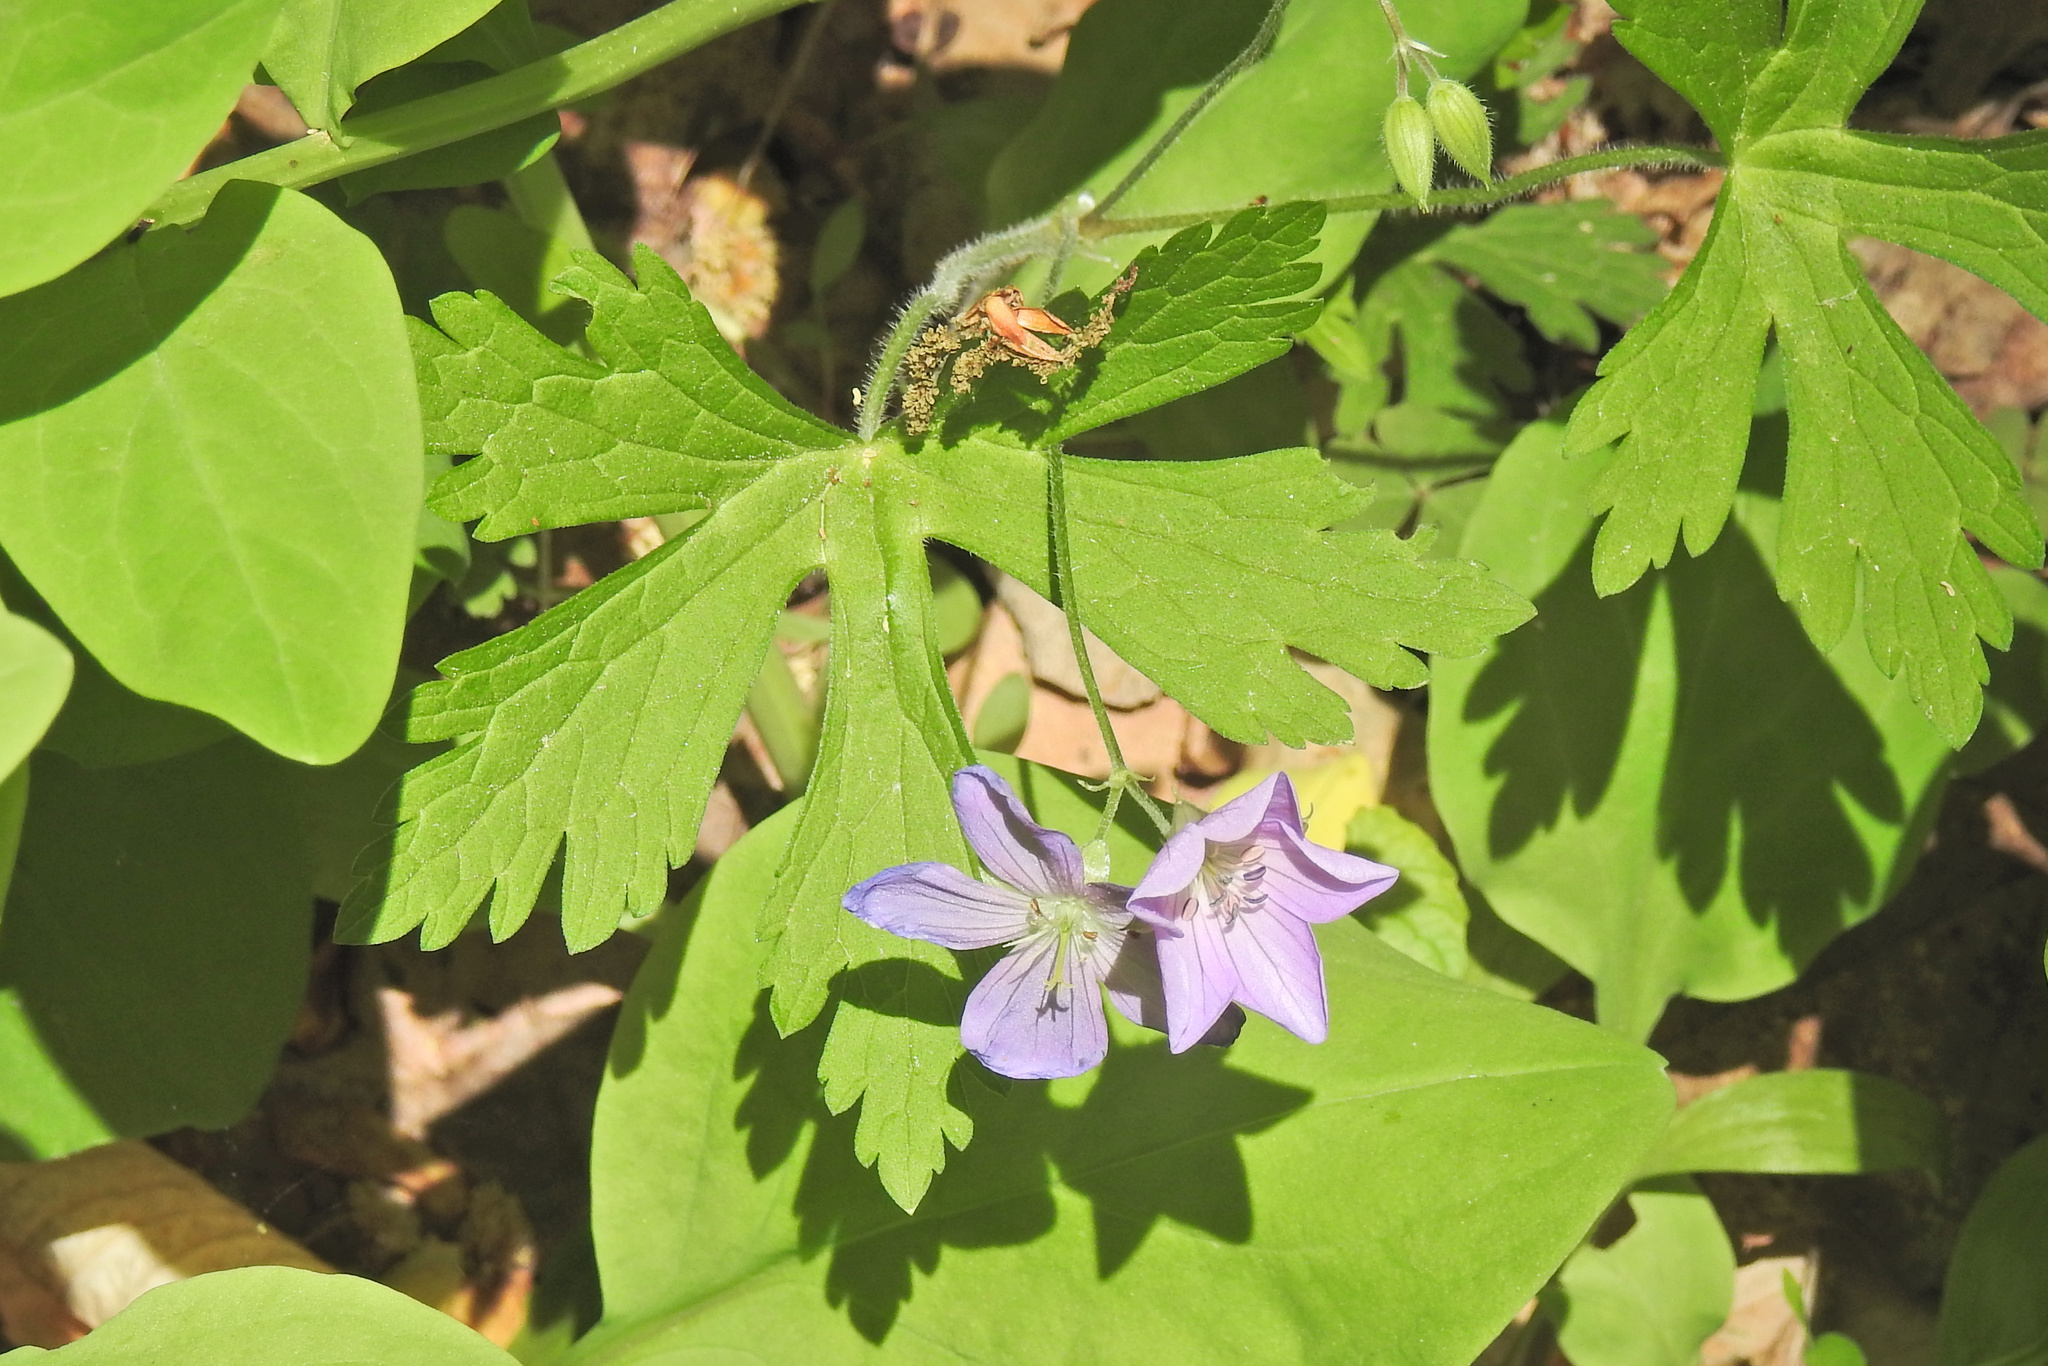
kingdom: Plantae
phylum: Tracheophyta
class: Magnoliopsida
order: Geraniales
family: Geraniaceae
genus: Geranium
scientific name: Geranium maculatum
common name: Spotted geranium
